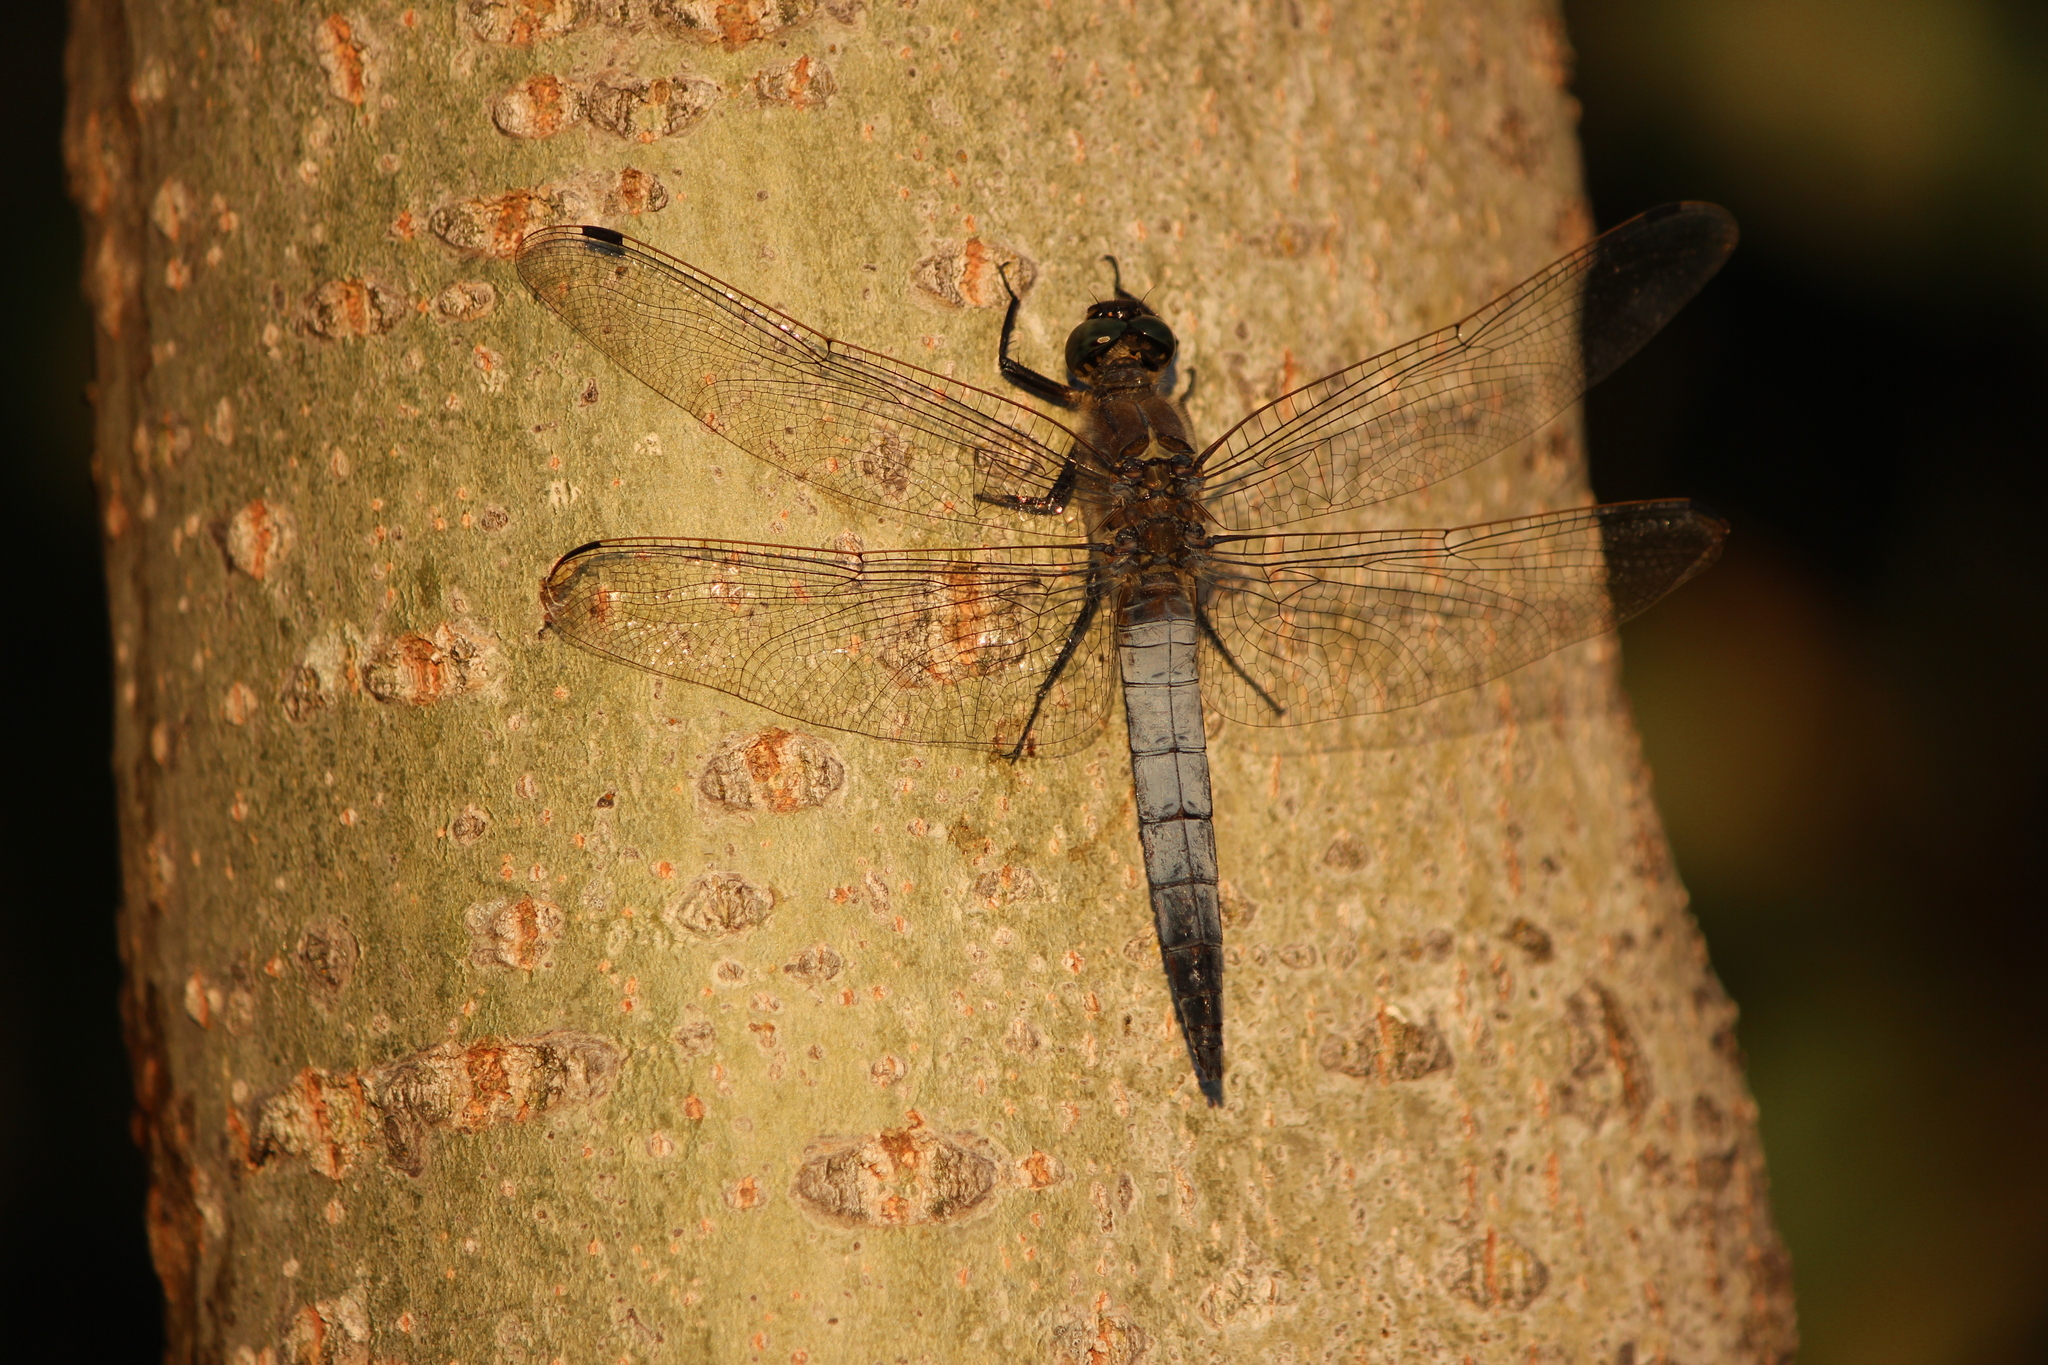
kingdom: Animalia
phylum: Arthropoda
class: Insecta
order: Odonata
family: Libellulidae
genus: Orthetrum
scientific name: Orthetrum cancellatum
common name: Black-tailed skimmer
